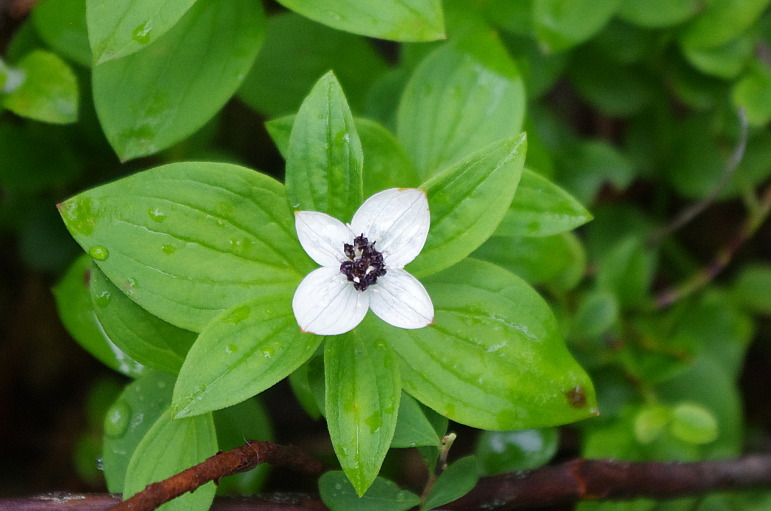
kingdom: Plantae
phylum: Tracheophyta
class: Magnoliopsida
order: Cornales
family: Cornaceae
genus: Cornus
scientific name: Cornus suecica
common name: Dwarf cornel
